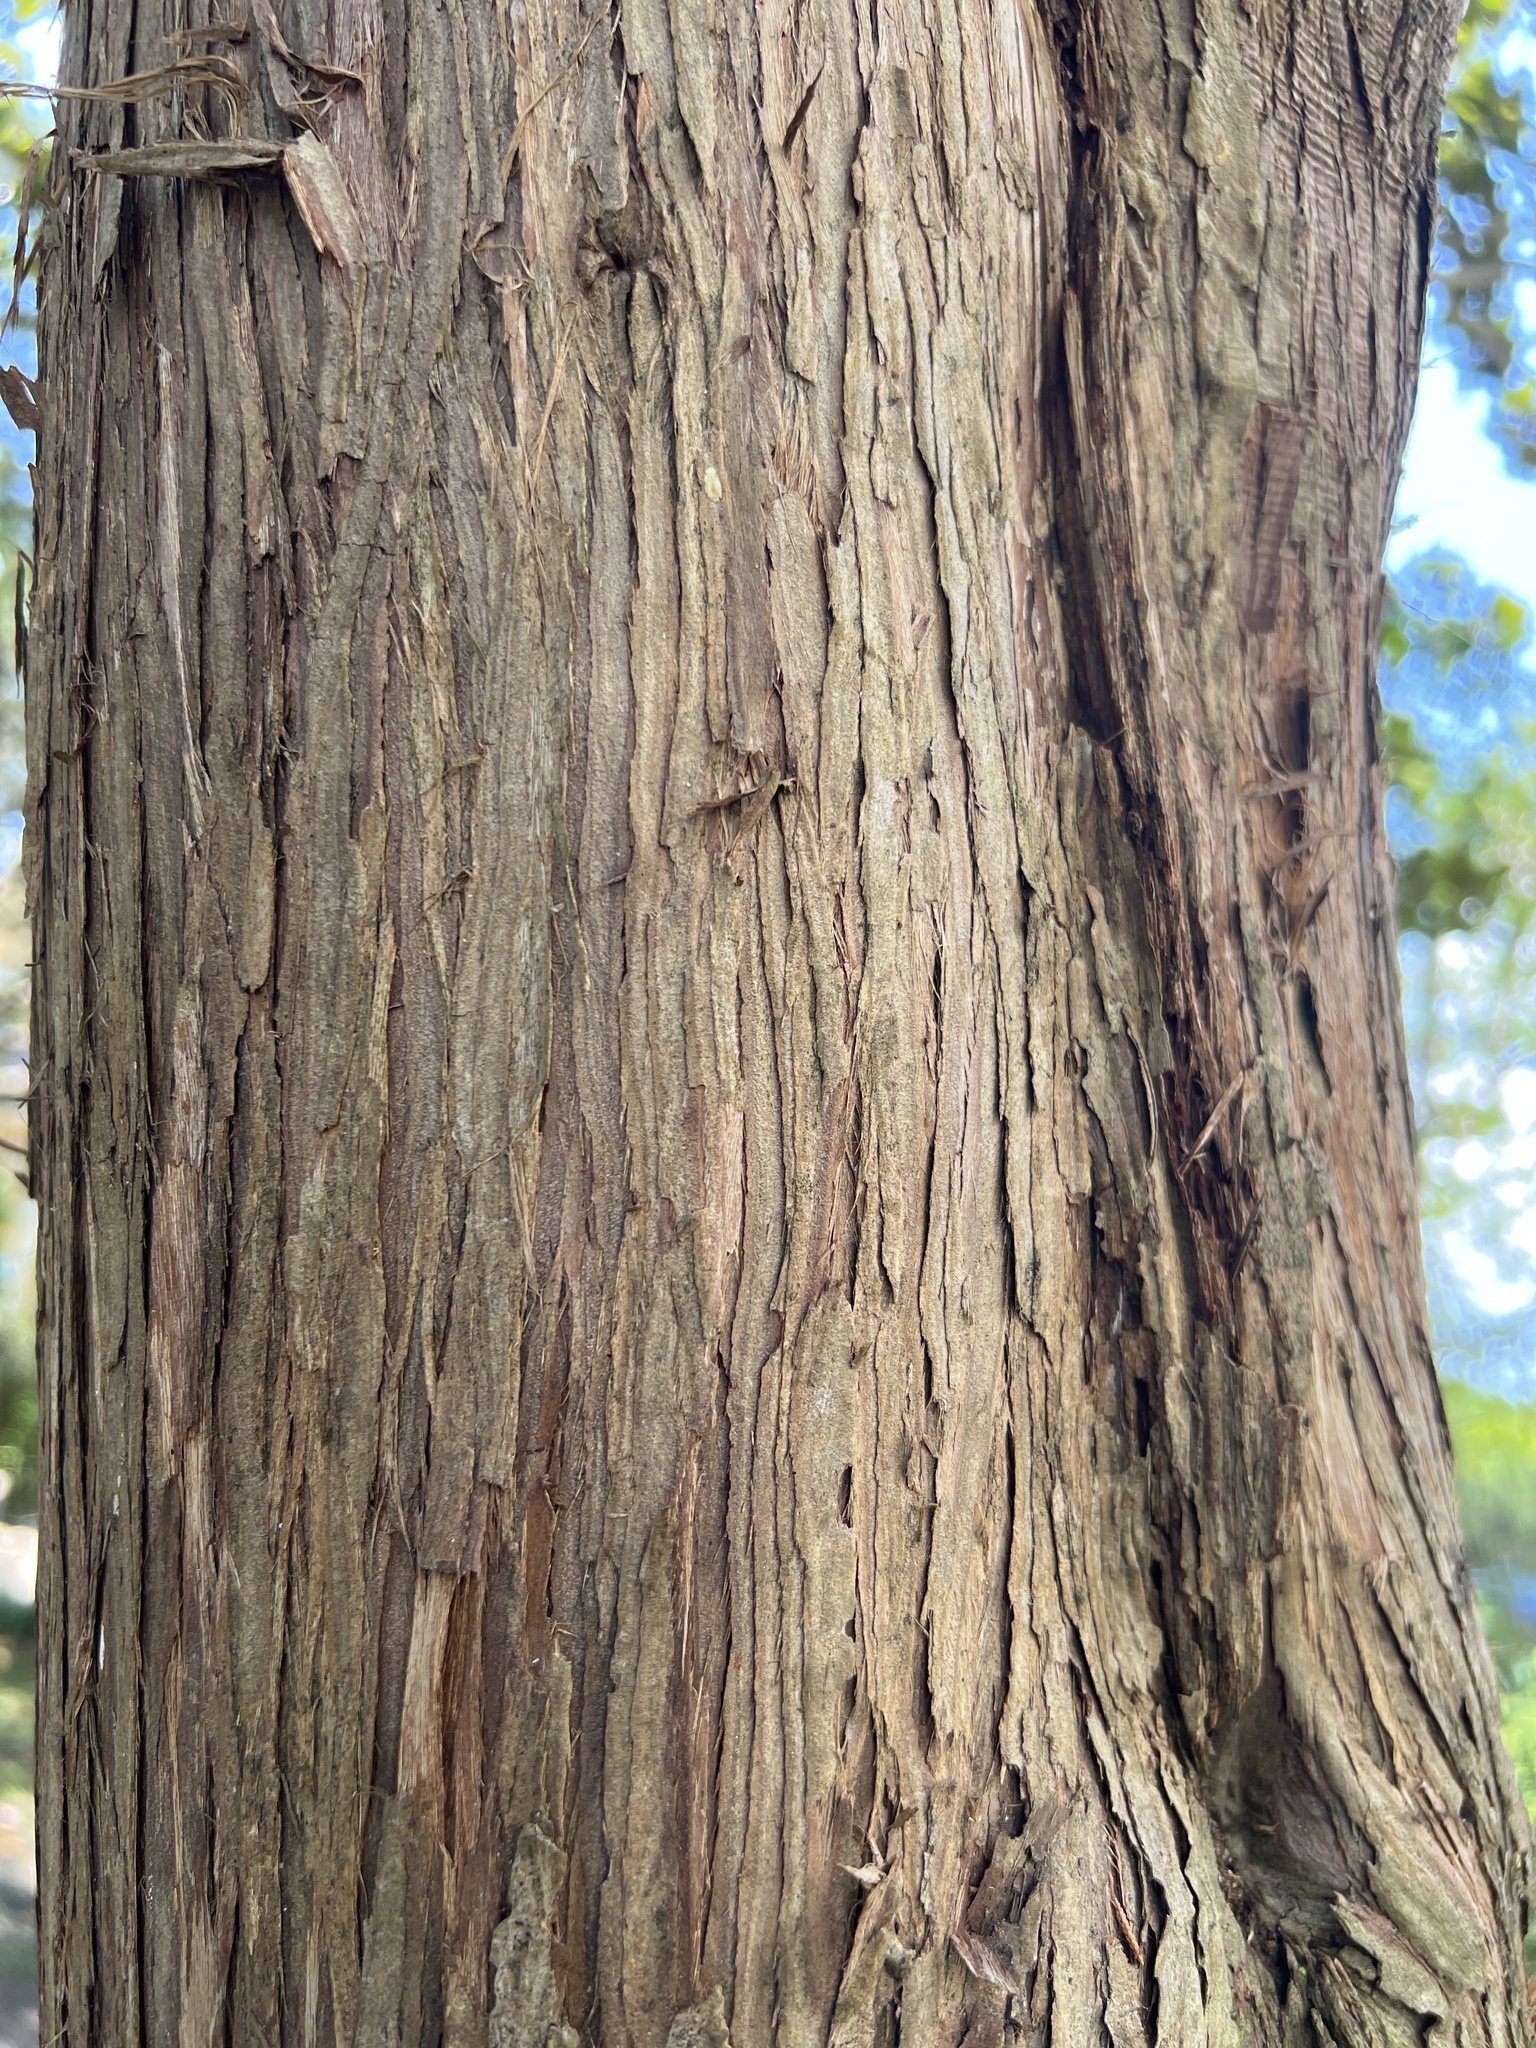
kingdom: Plantae
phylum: Tracheophyta
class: Pinopsida
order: Pinales
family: Cupressaceae
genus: Juniperus
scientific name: Juniperus virginiana
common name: Red juniper
